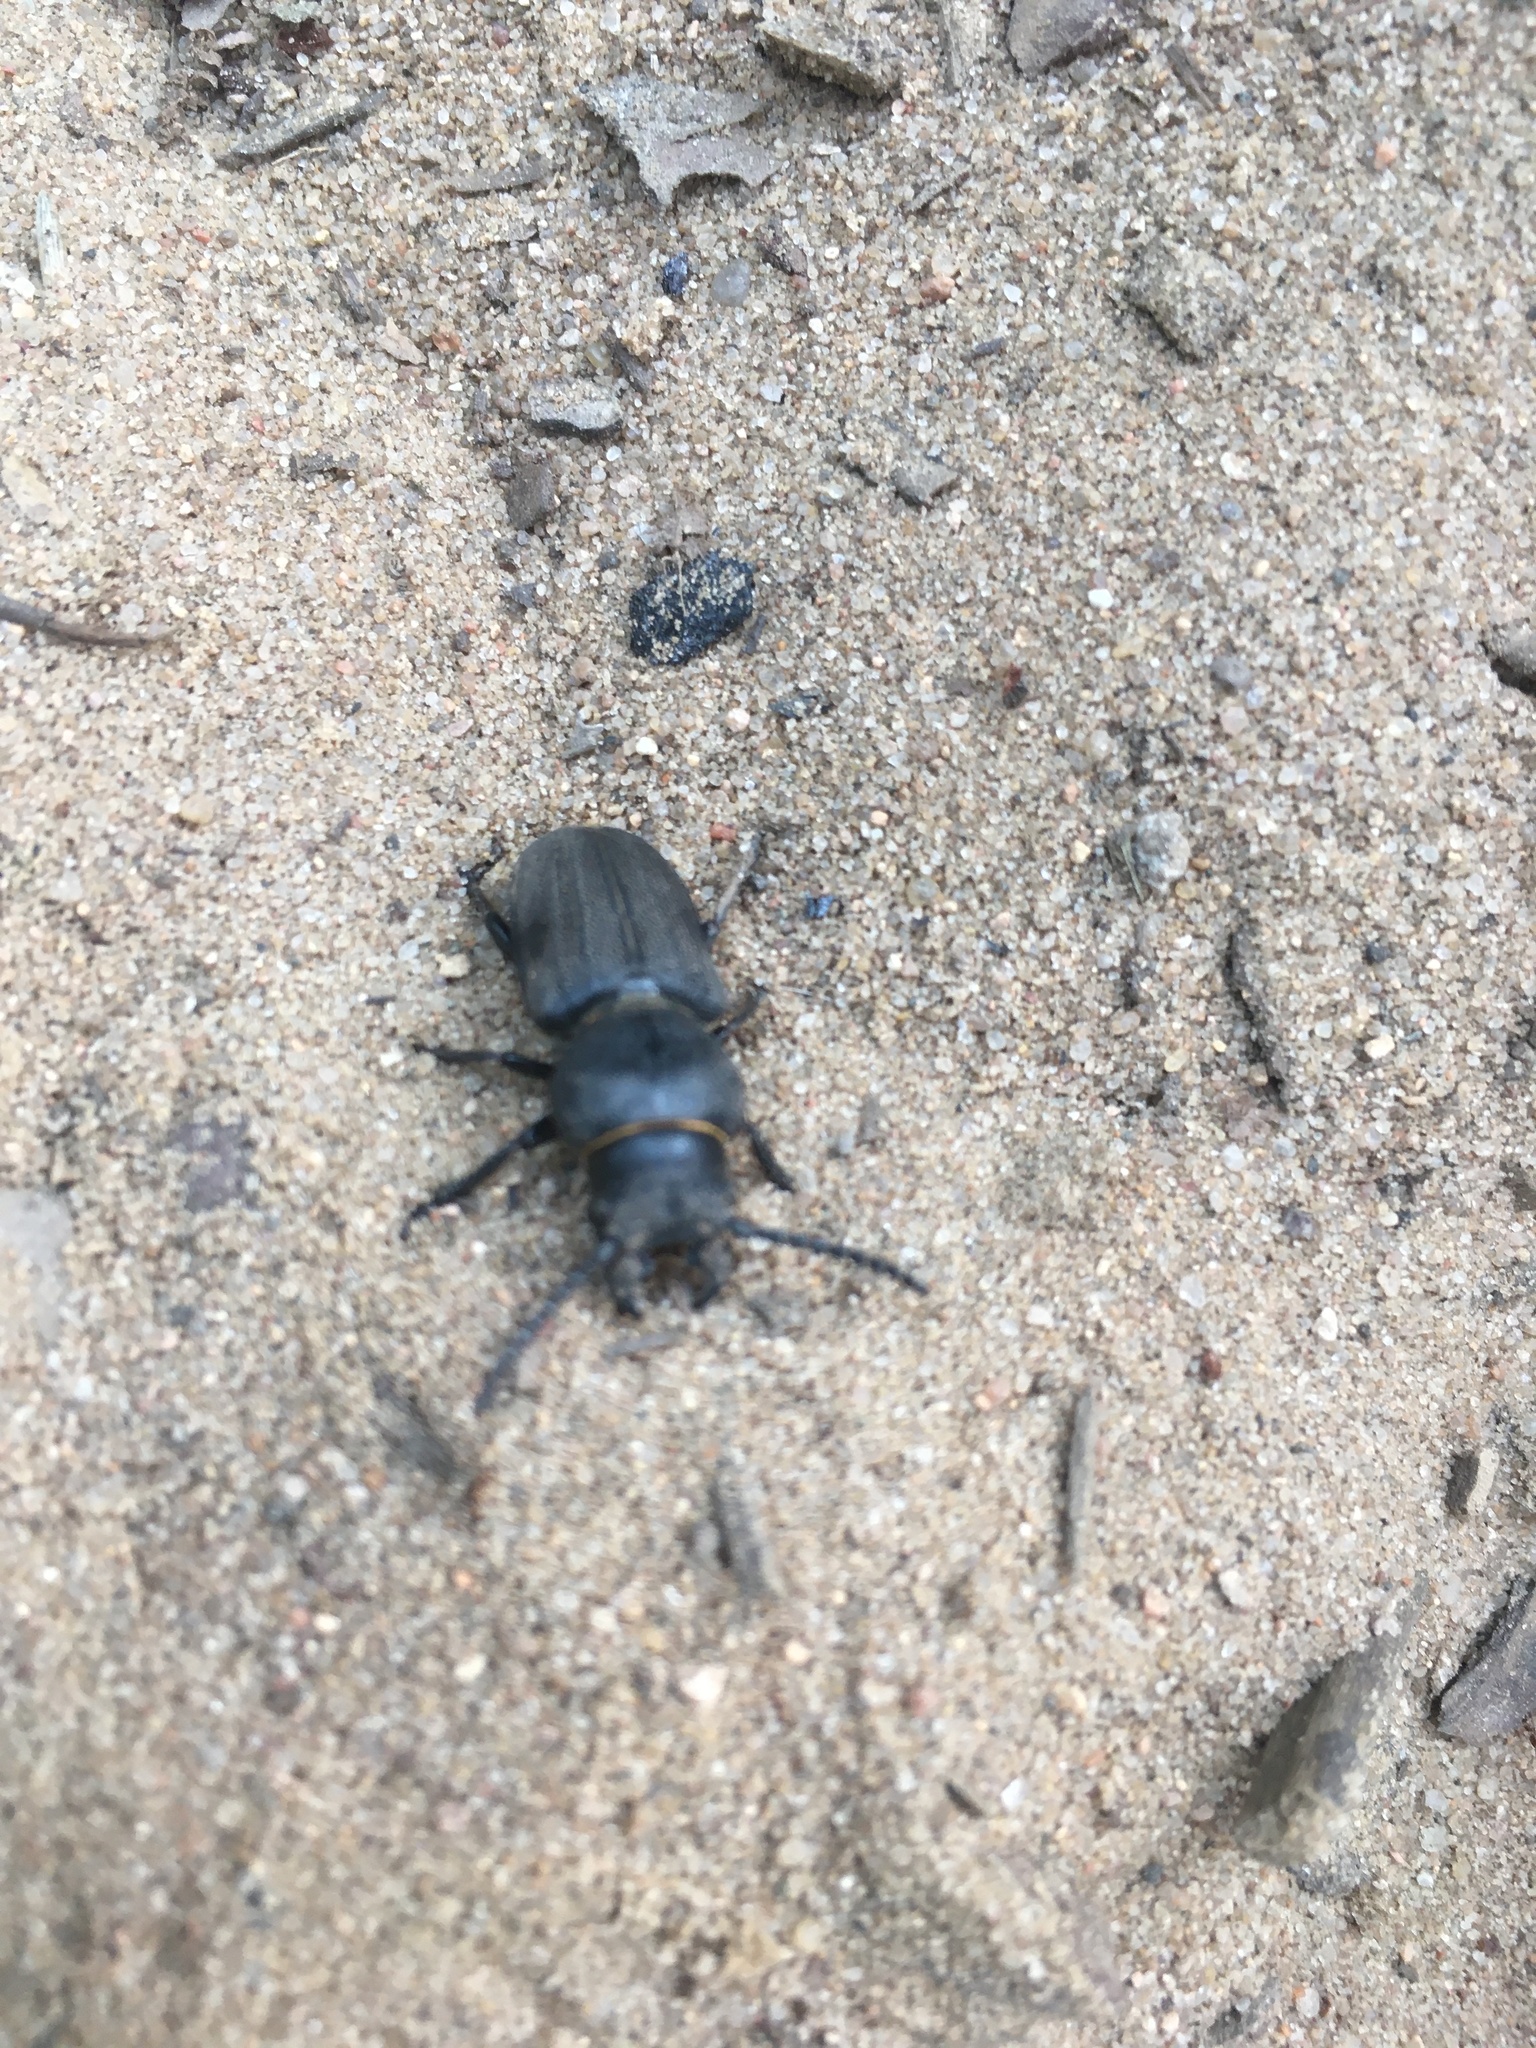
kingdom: Animalia
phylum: Arthropoda
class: Insecta
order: Coleoptera
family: Cerambycidae
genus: Spondylis
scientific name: Spondylis buprestoides
